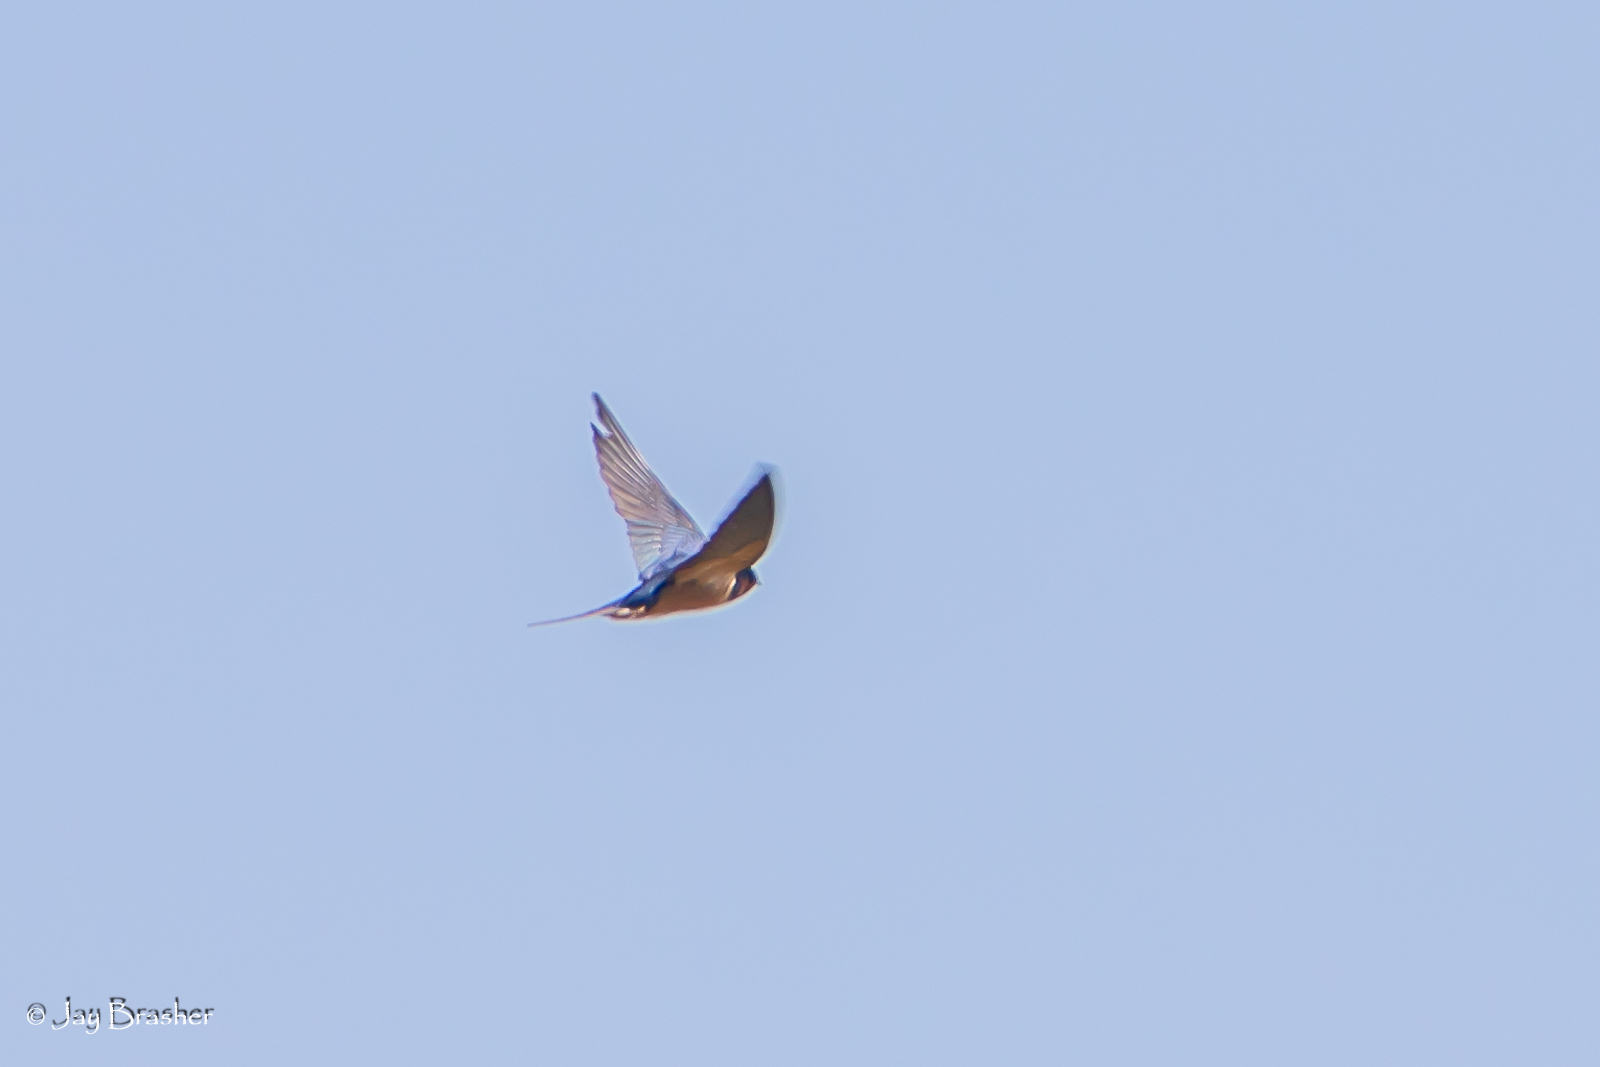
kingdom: Animalia
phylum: Chordata
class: Aves
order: Passeriformes
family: Hirundinidae
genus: Hirundo
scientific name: Hirundo rustica
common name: Barn swallow
